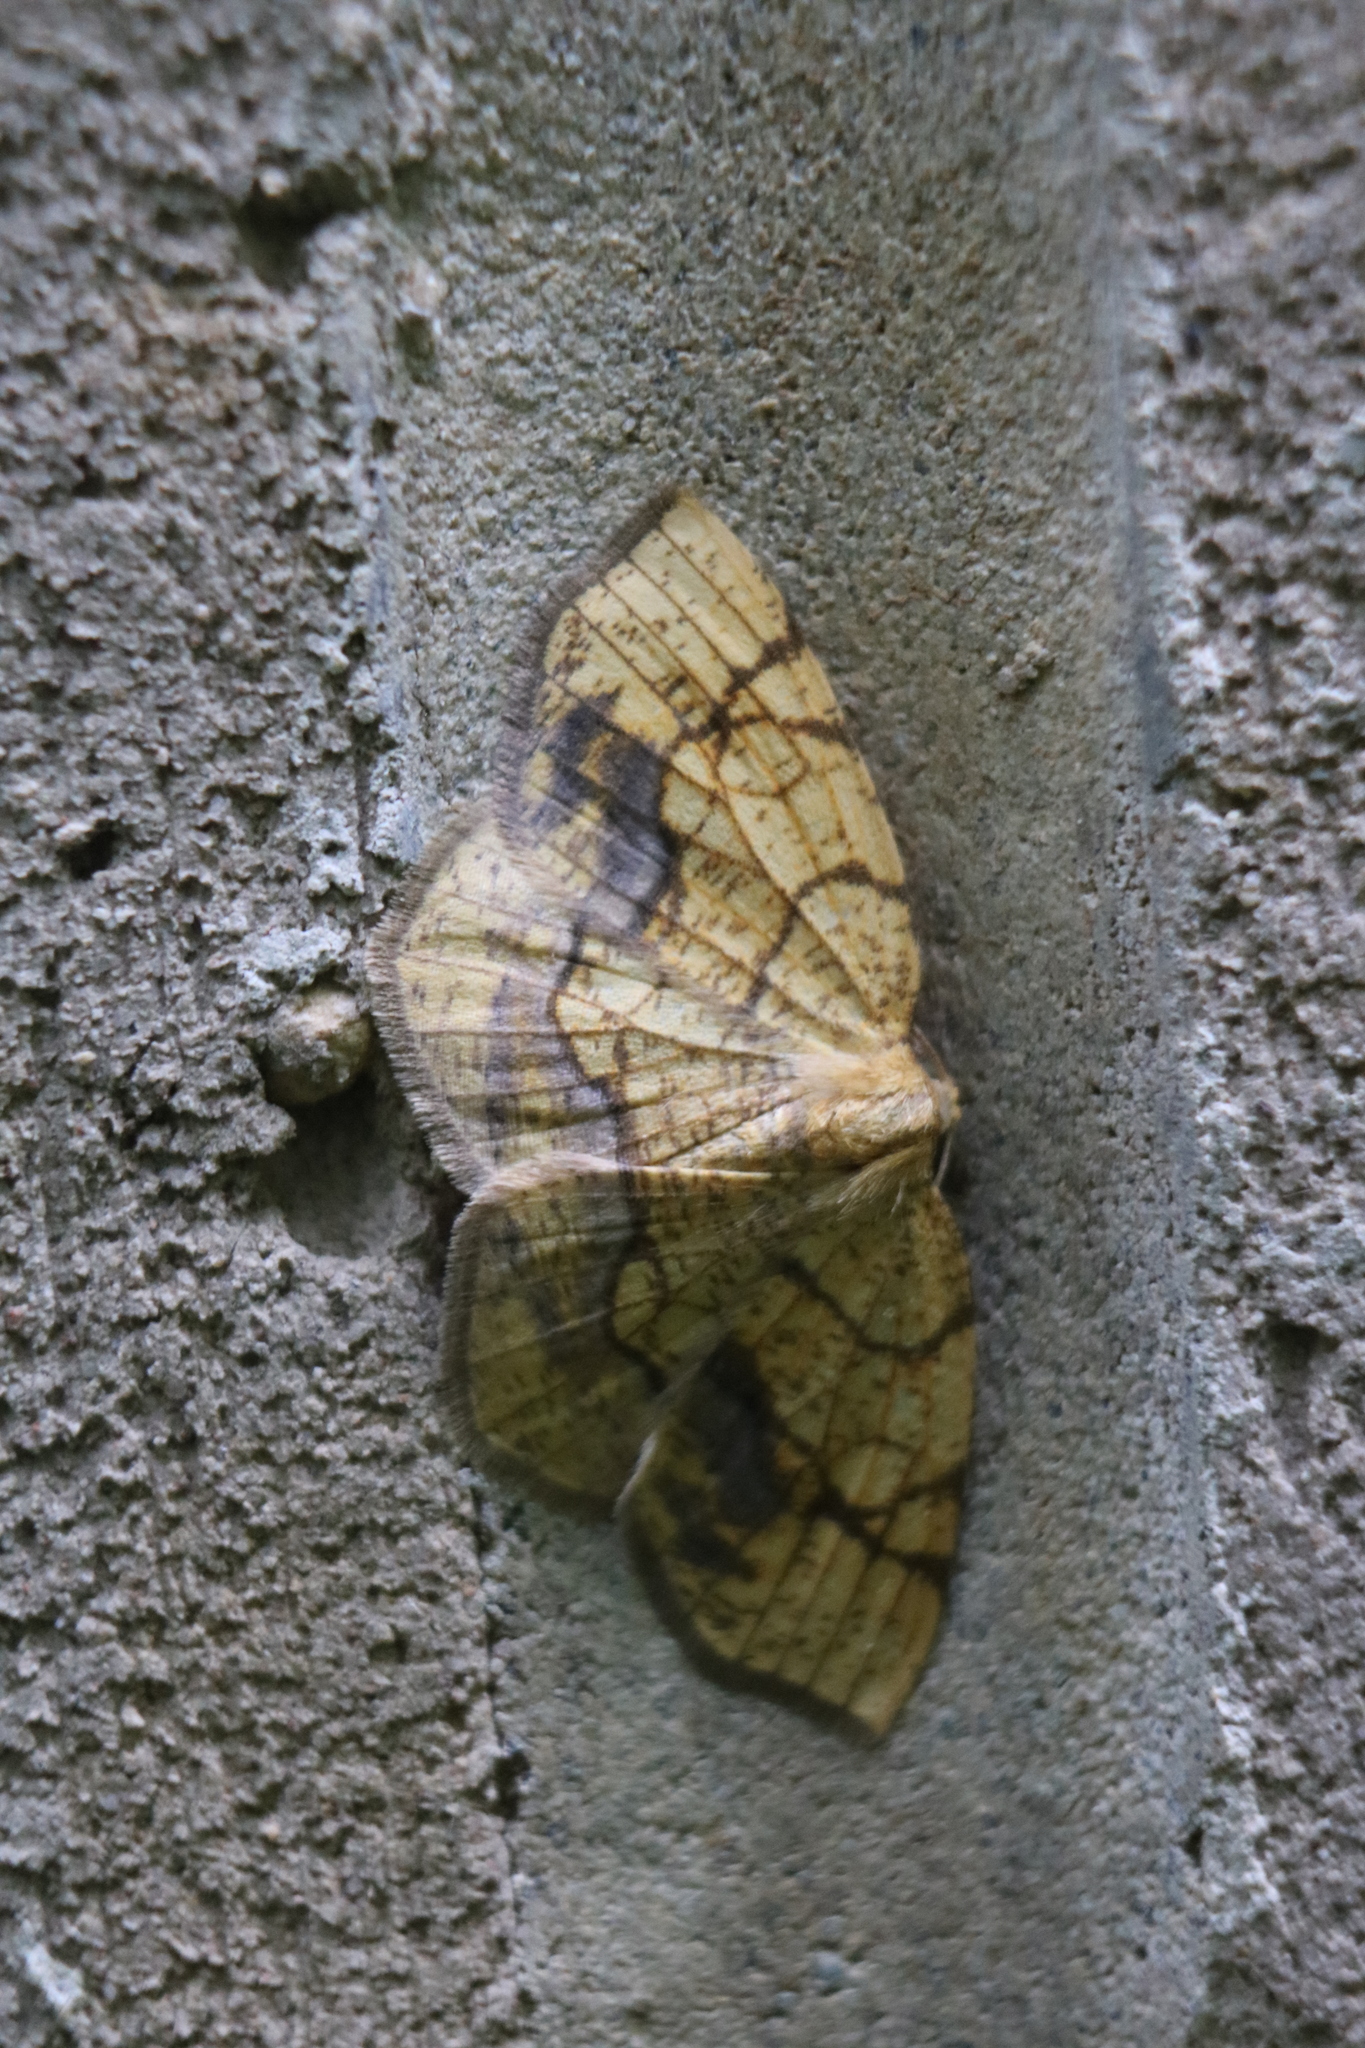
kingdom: Animalia
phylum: Arthropoda
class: Insecta
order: Lepidoptera
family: Geometridae
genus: Nematocampa
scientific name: Nematocampa resistaria
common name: Horned spanworm moth
